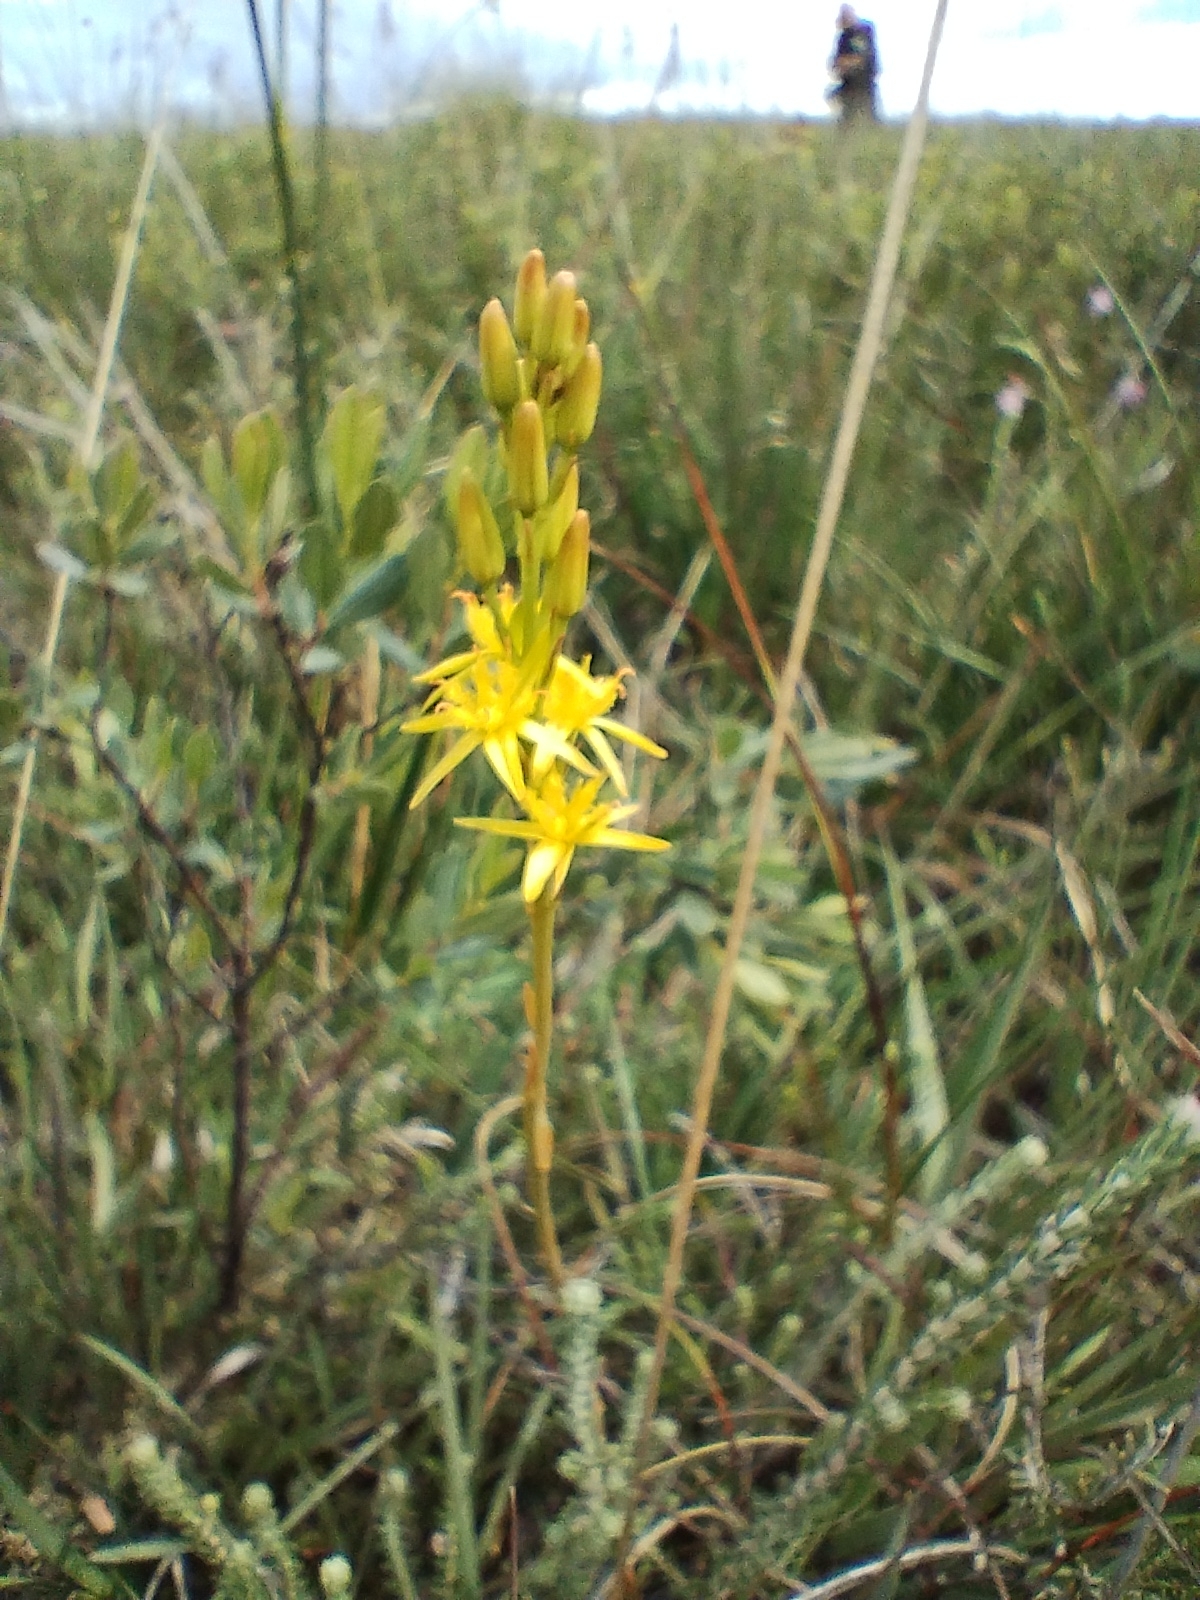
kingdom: Plantae
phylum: Tracheophyta
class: Liliopsida
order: Dioscoreales
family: Nartheciaceae
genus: Narthecium
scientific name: Narthecium ossifragum
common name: Bog asphodel
